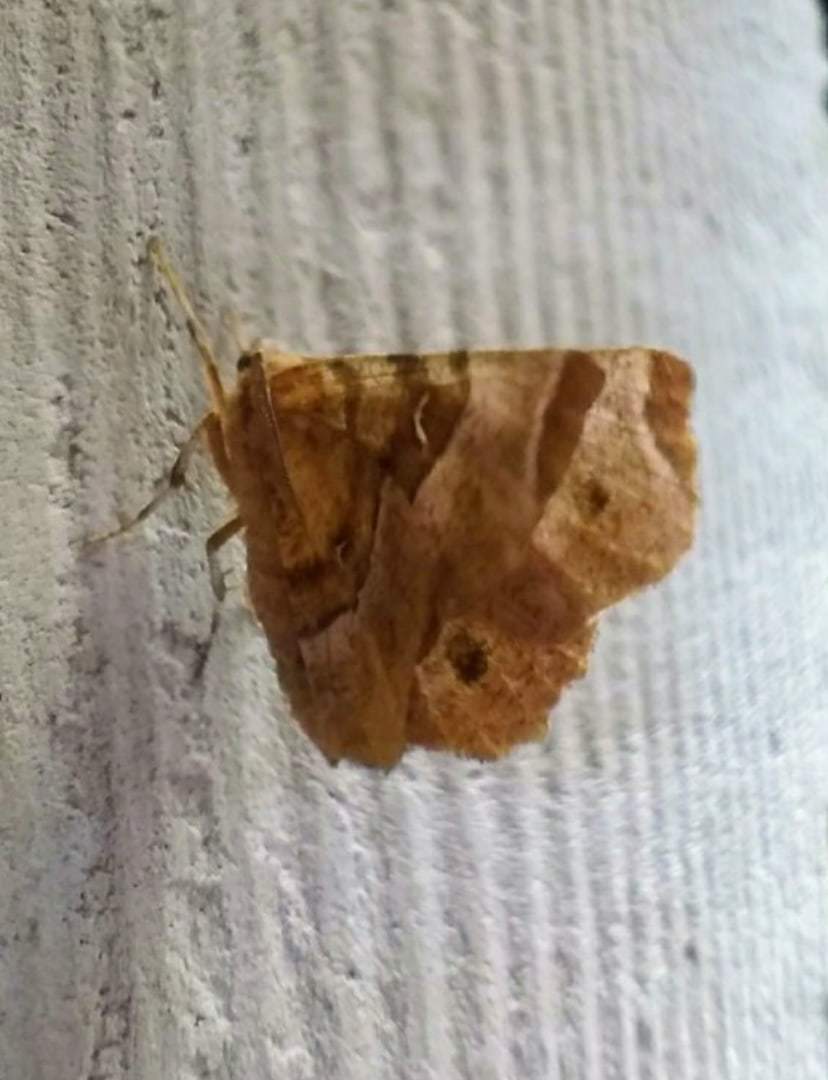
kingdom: Animalia
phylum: Arthropoda
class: Insecta
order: Lepidoptera
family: Geometridae
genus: Selenia
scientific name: Selenia tetralunaria
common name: Purple thorn
